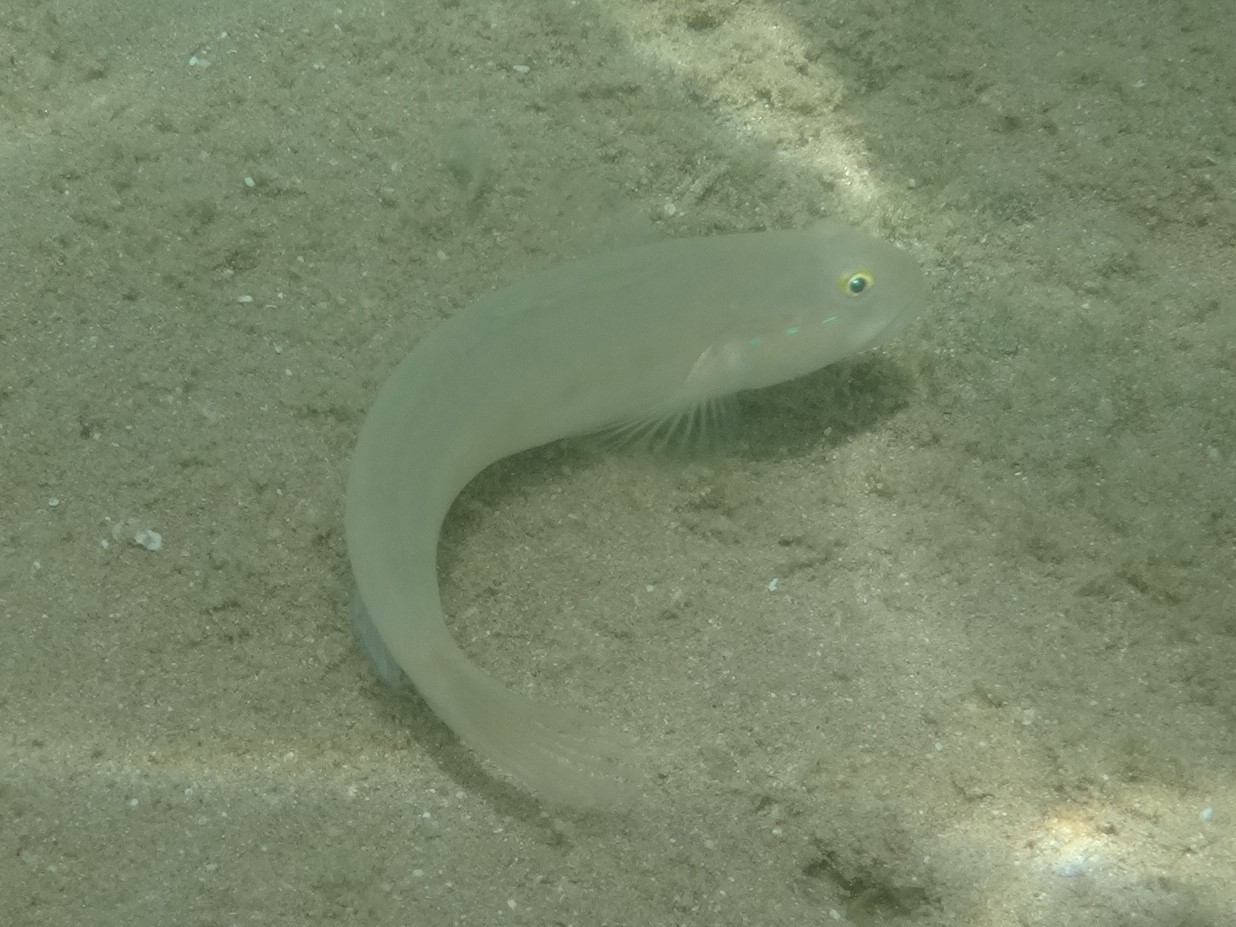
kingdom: Animalia
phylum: Chordata
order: Perciformes
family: Gobiidae
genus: Valenciennea
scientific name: Valenciennea sexguttata
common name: Sixspot goby
